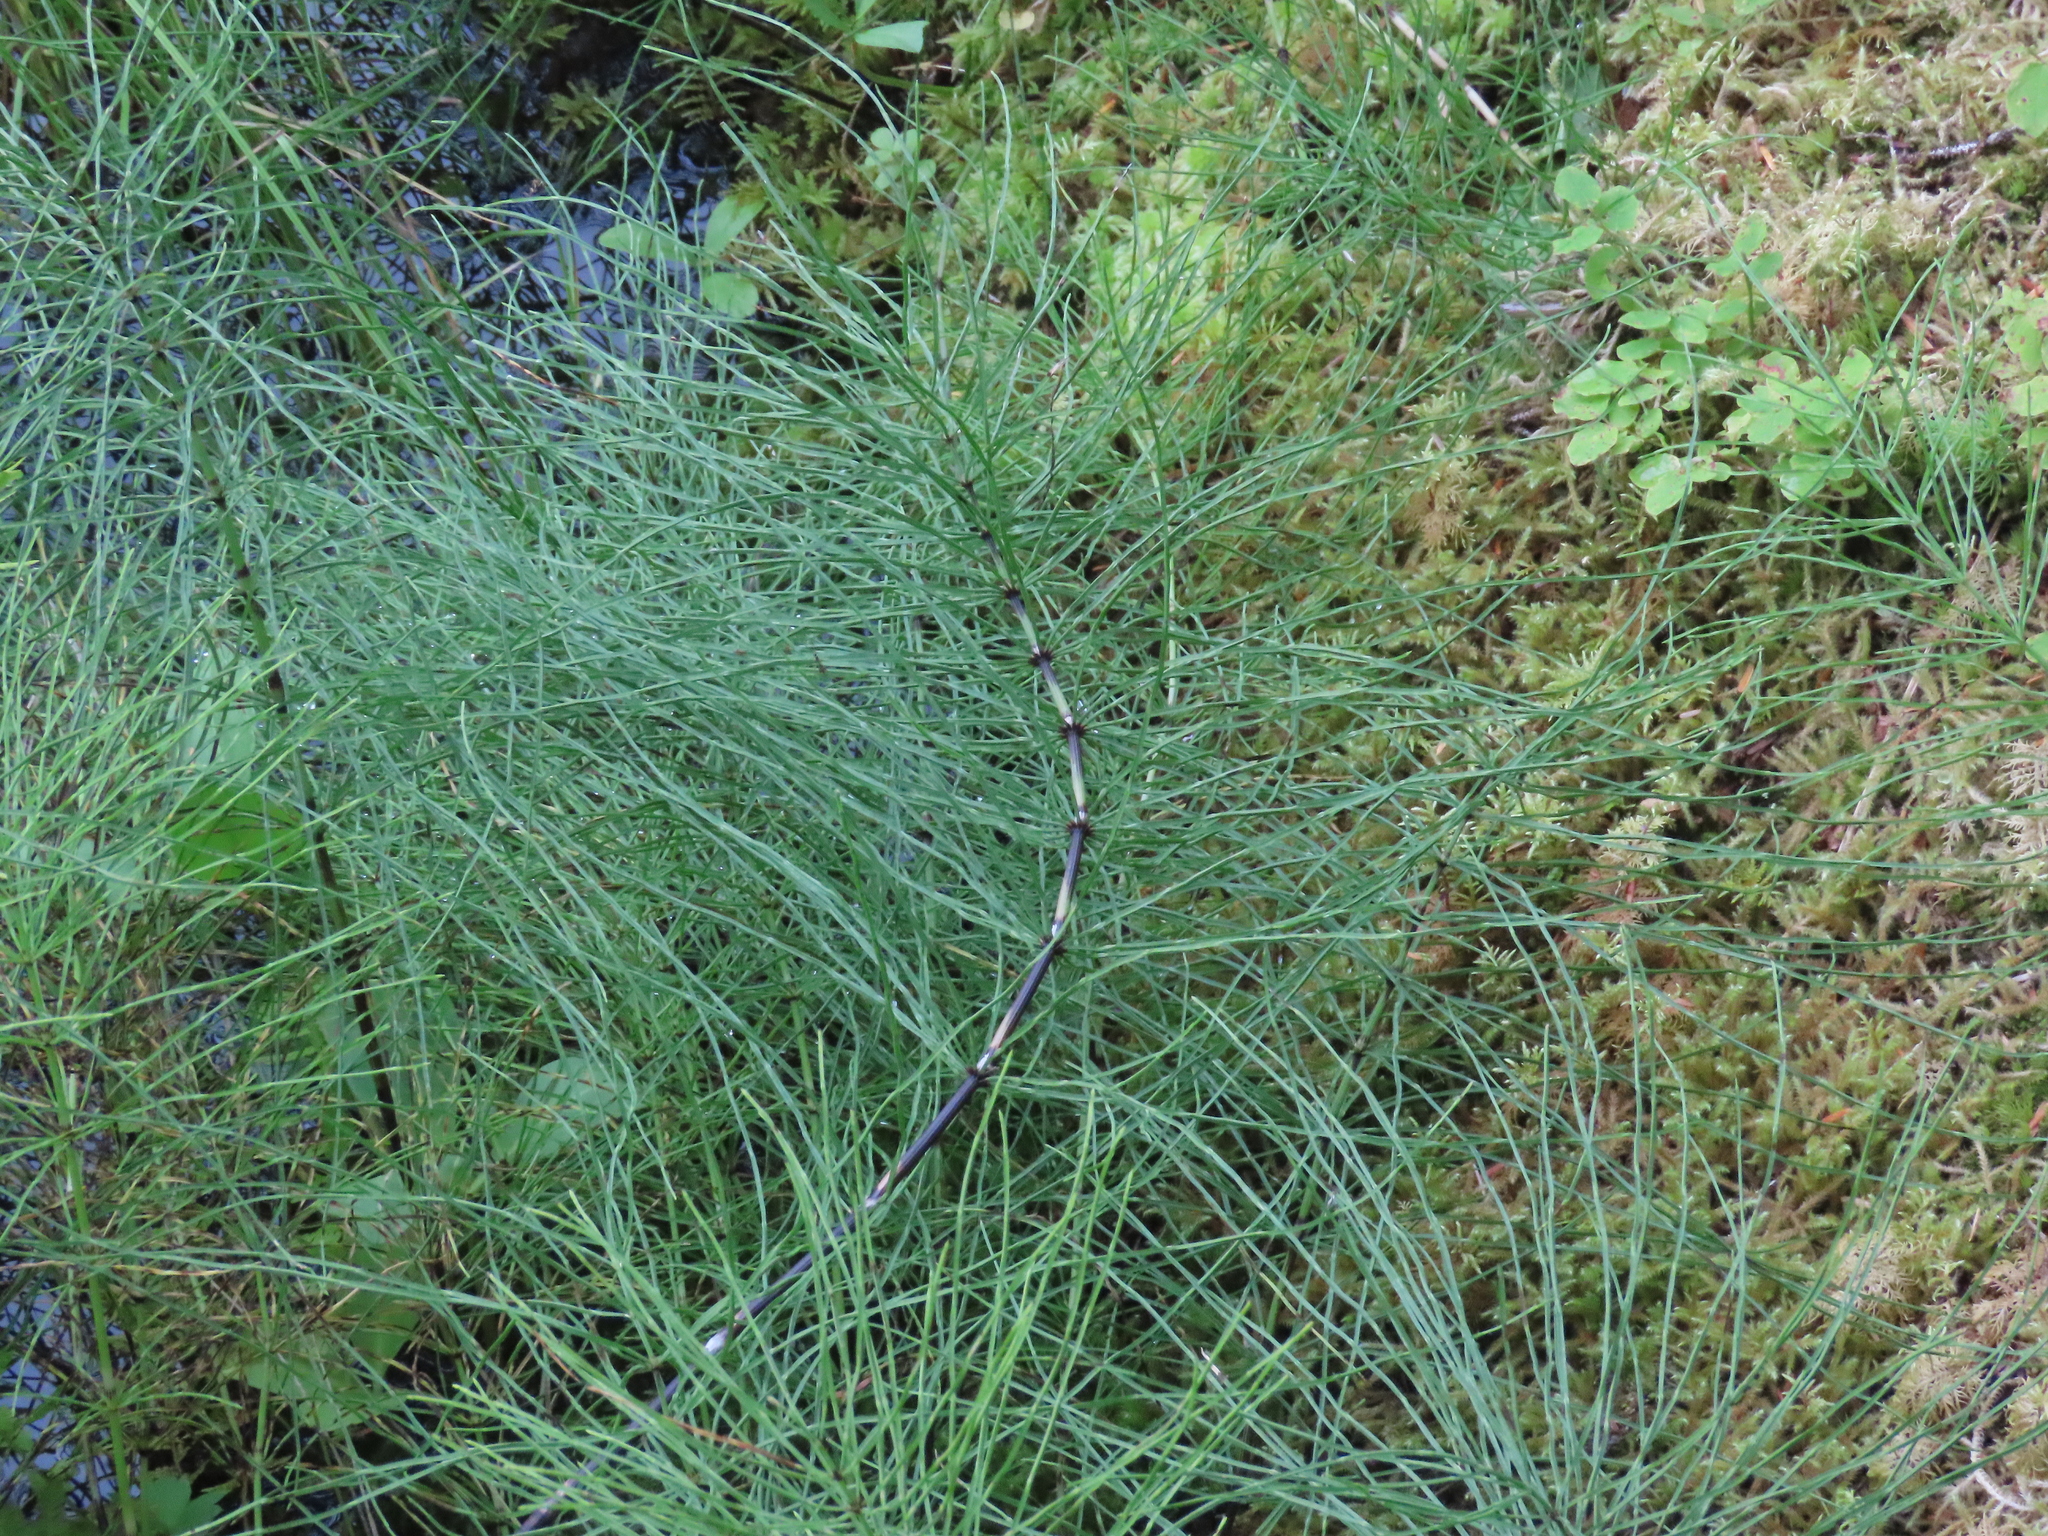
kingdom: Plantae
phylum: Tracheophyta
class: Polypodiopsida
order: Equisetales
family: Equisetaceae
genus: Equisetum
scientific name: Equisetum arvense
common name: Field horsetail
